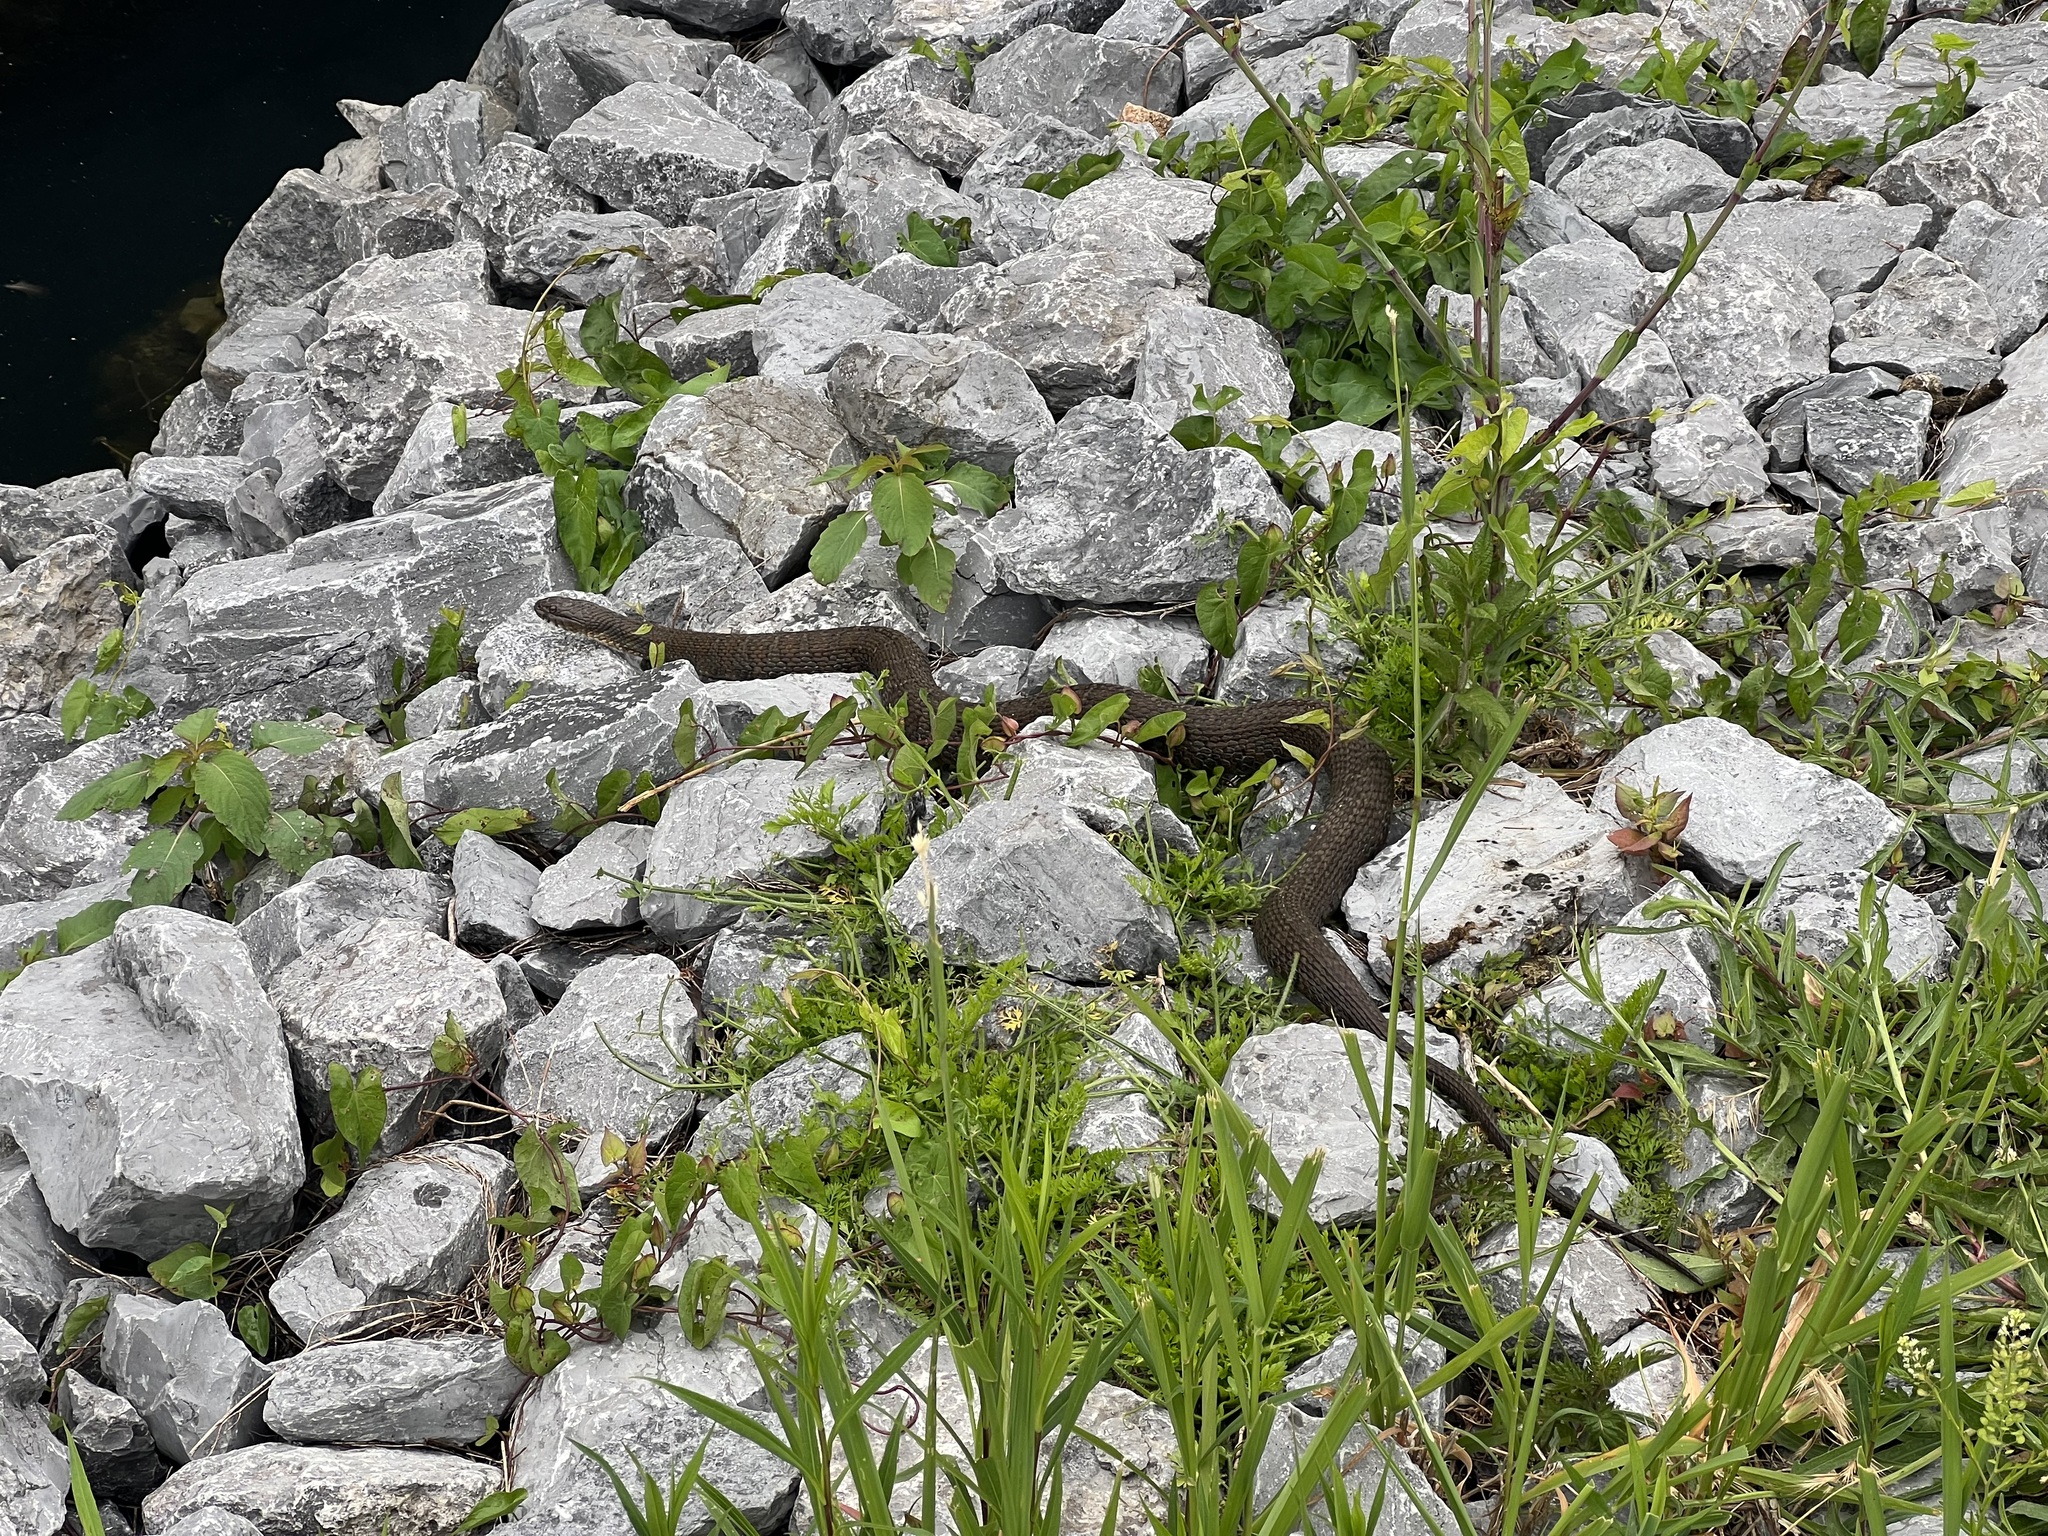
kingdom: Animalia
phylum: Chordata
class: Squamata
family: Colubridae
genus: Nerodia
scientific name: Nerodia sipedon
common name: Northern water snake
